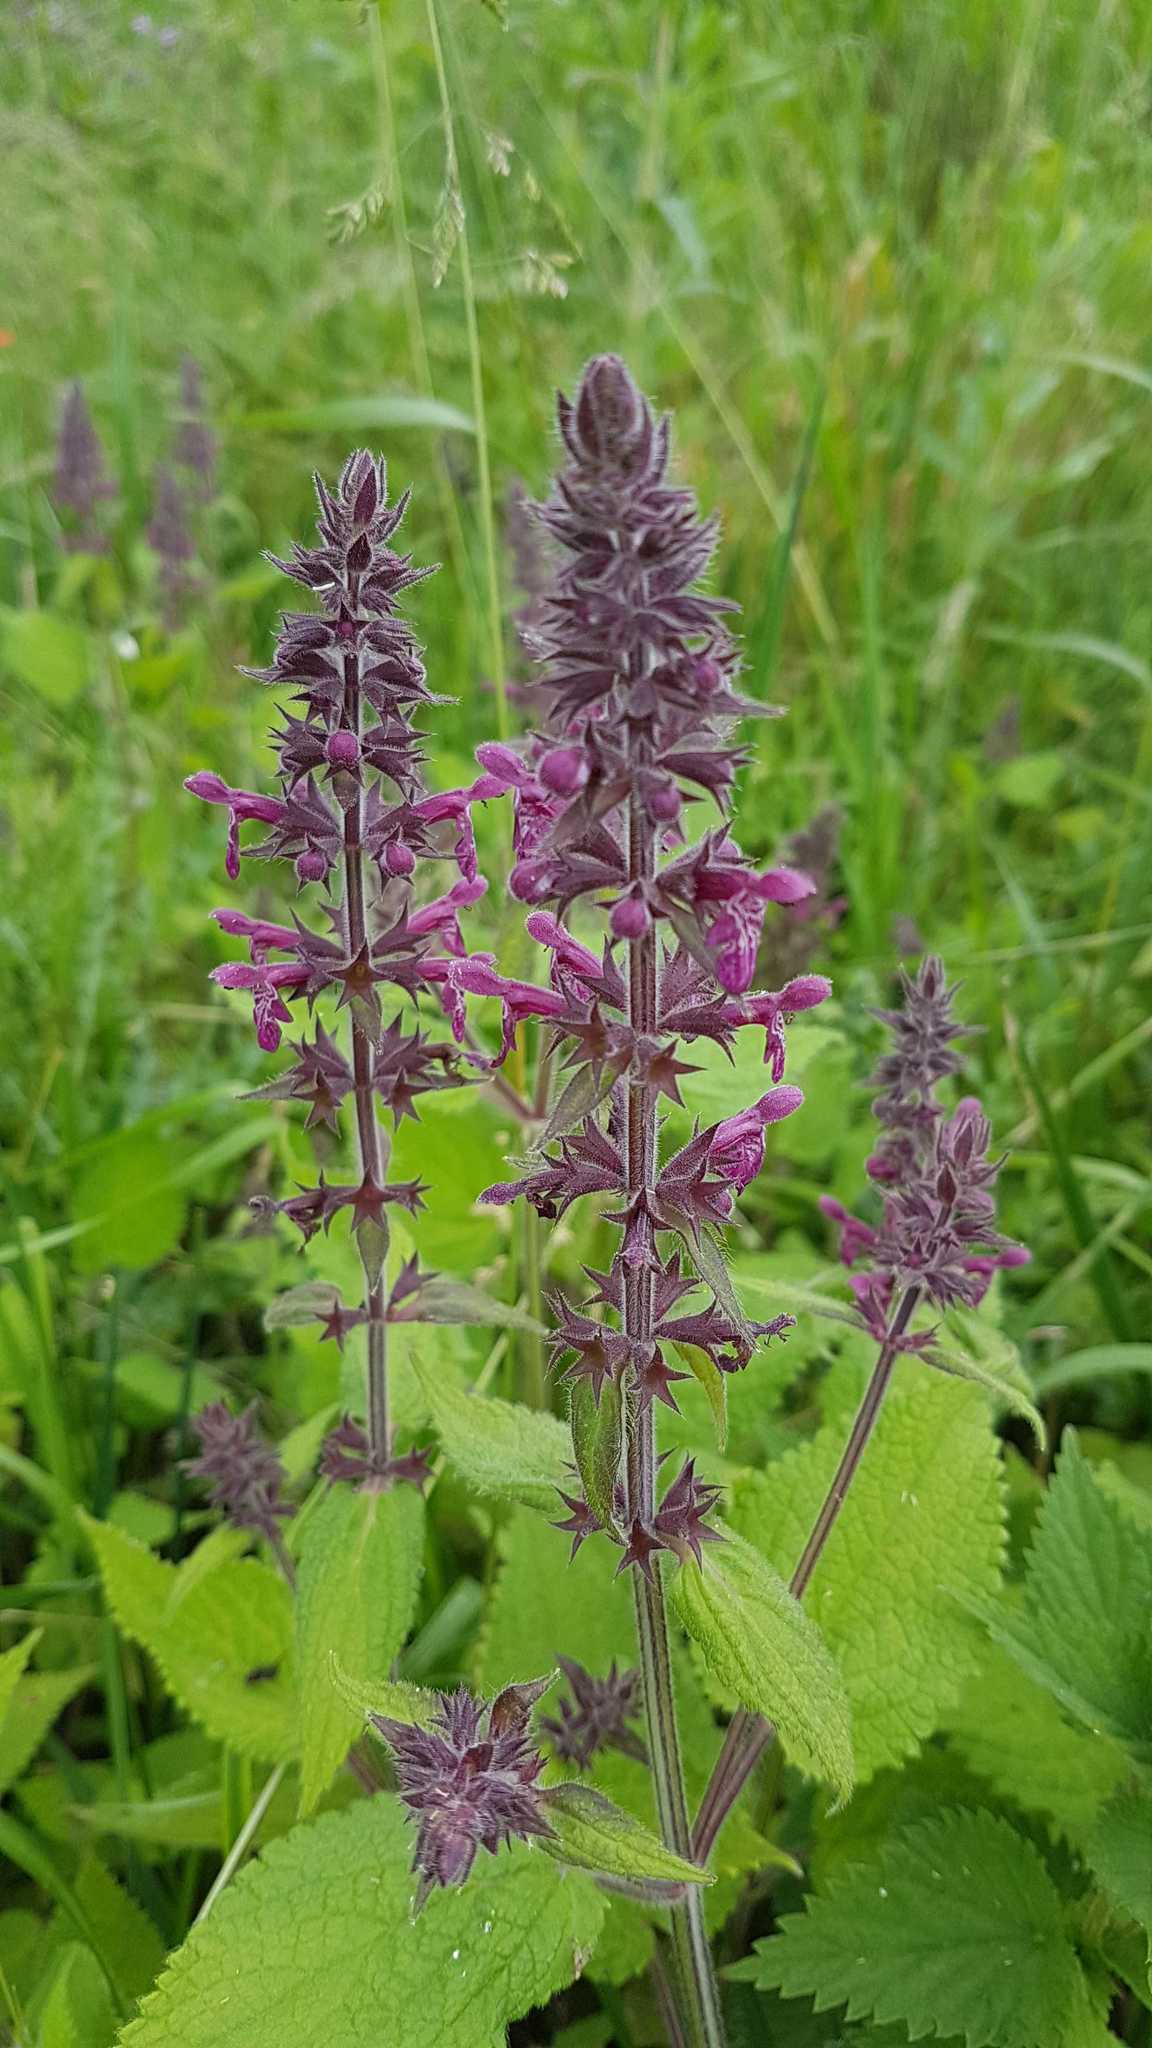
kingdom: Plantae
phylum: Tracheophyta
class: Magnoliopsida
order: Lamiales
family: Lamiaceae
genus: Stachys
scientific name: Stachys sylvatica
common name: Hedge woundwort
